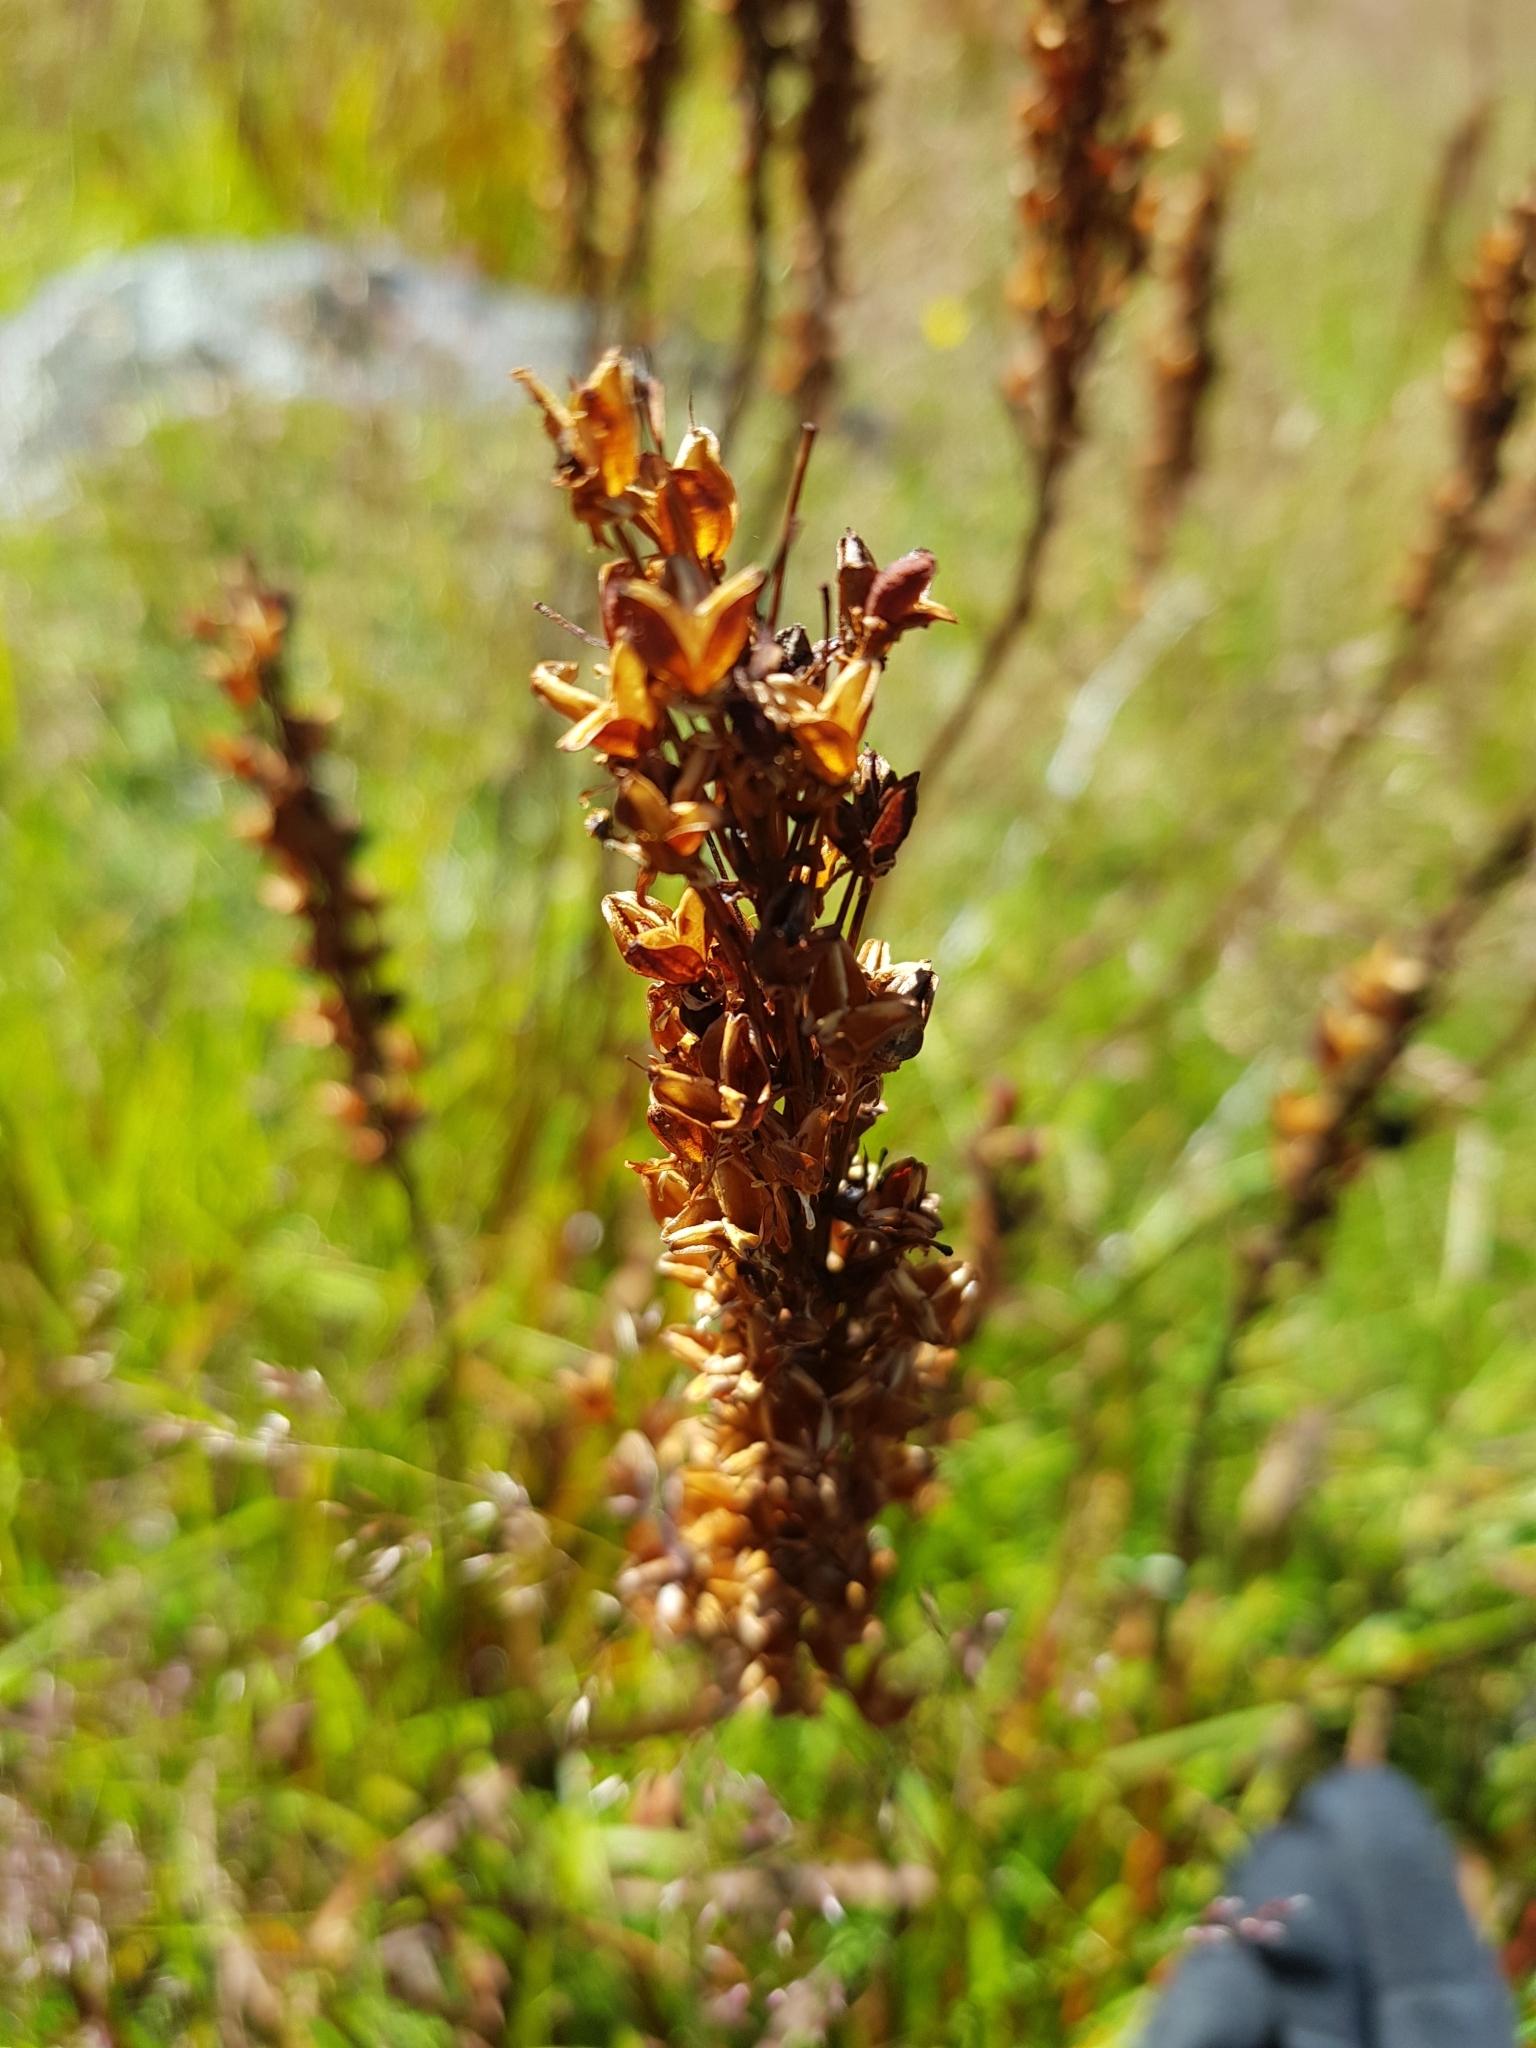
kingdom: Plantae
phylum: Tracheophyta
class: Liliopsida
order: Asparagales
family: Asphodelaceae
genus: Bulbinella
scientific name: Bulbinella angustifolia
